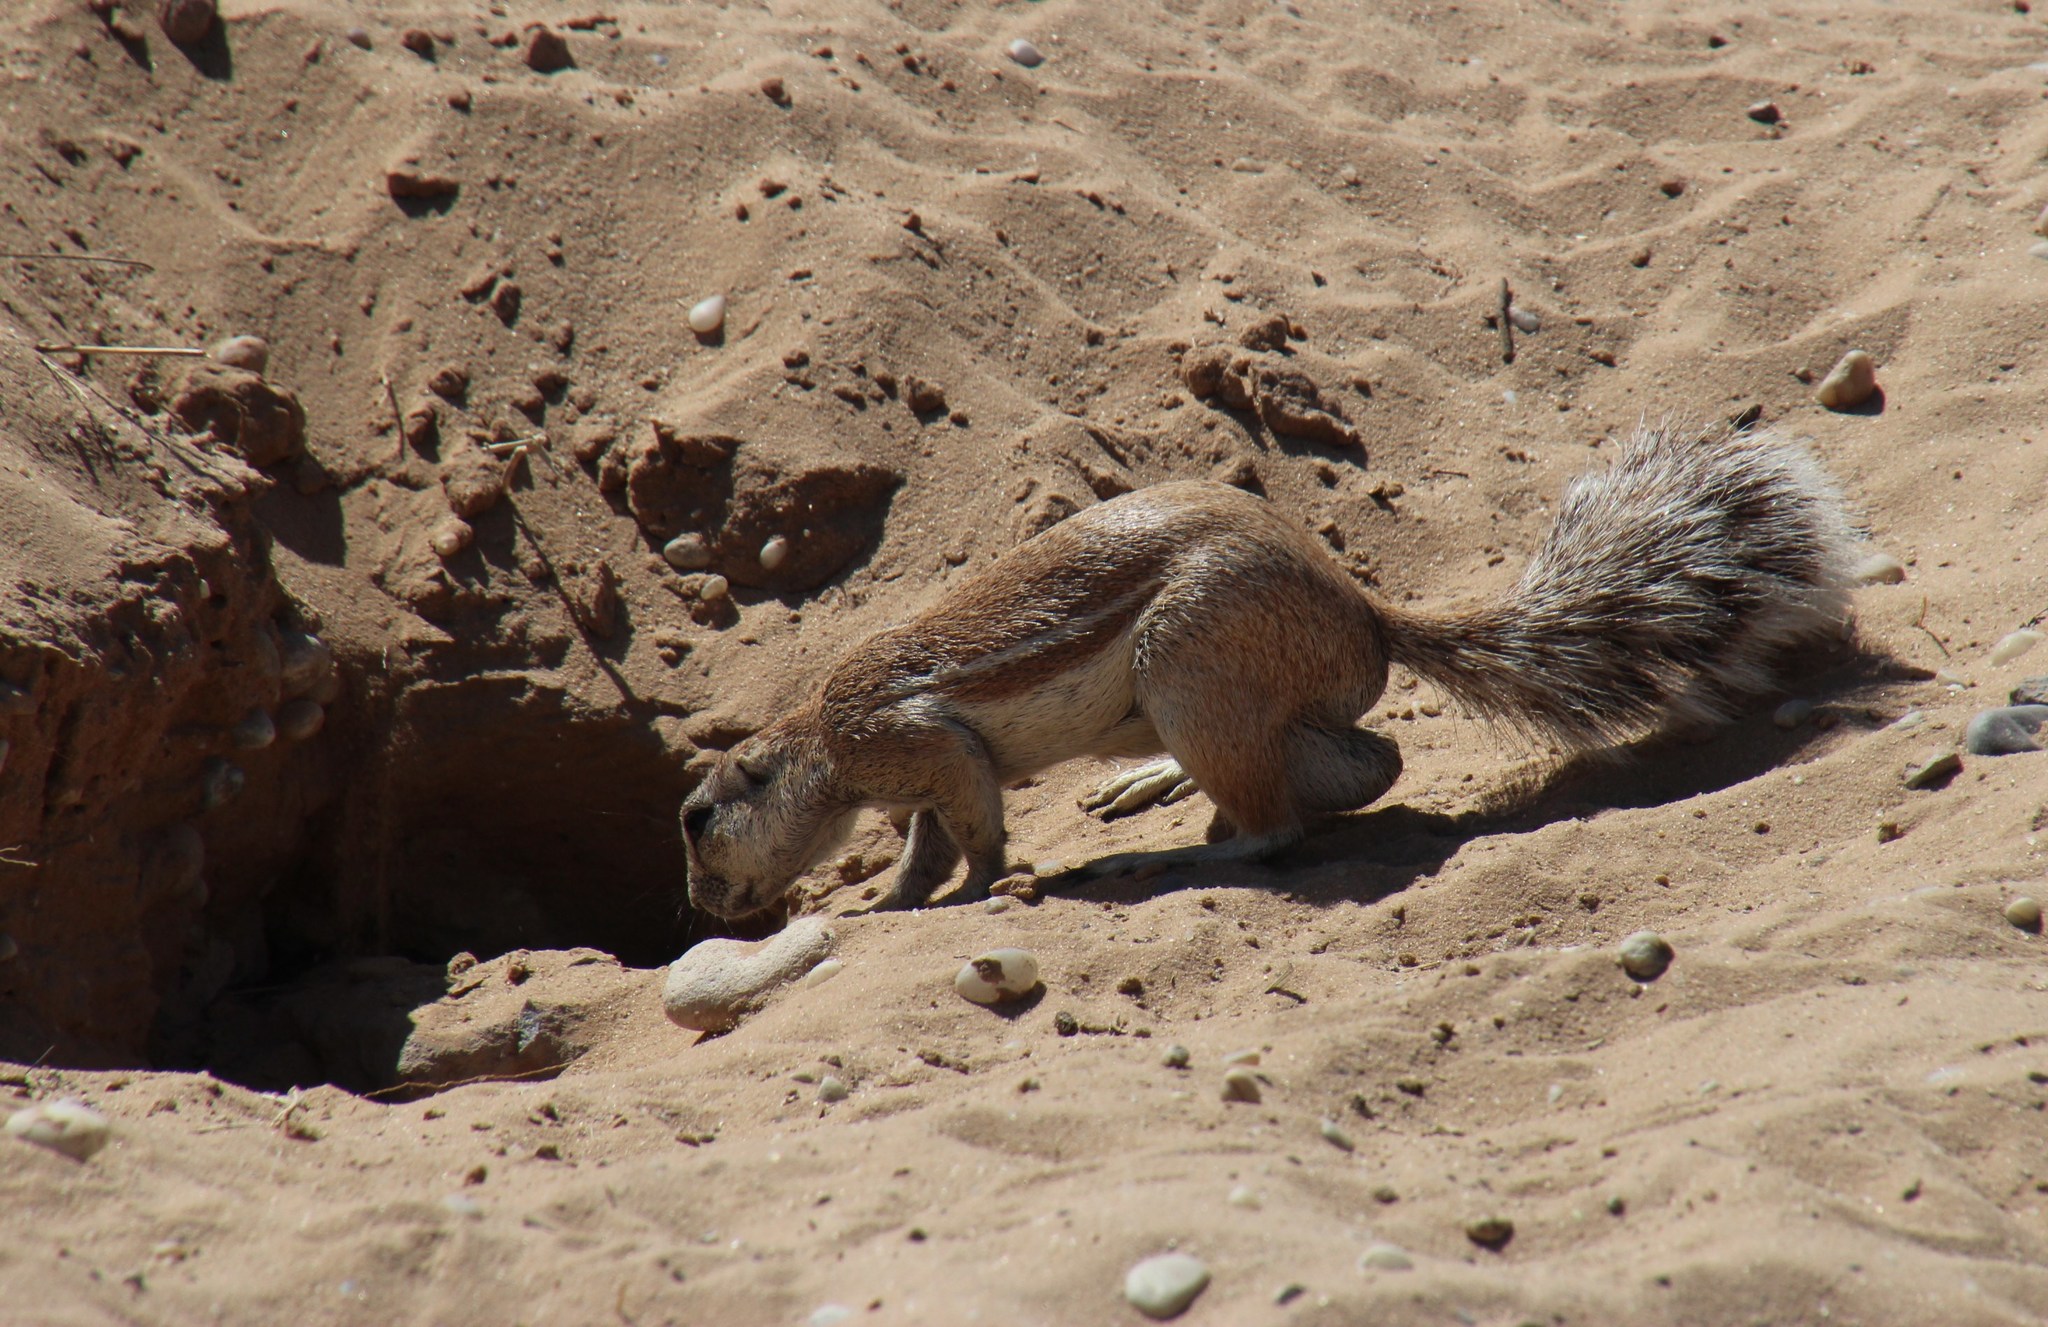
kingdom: Animalia
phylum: Chordata
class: Mammalia
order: Rodentia
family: Sciuridae
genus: Xerus
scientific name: Xerus inauris
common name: South african ground squirrel
